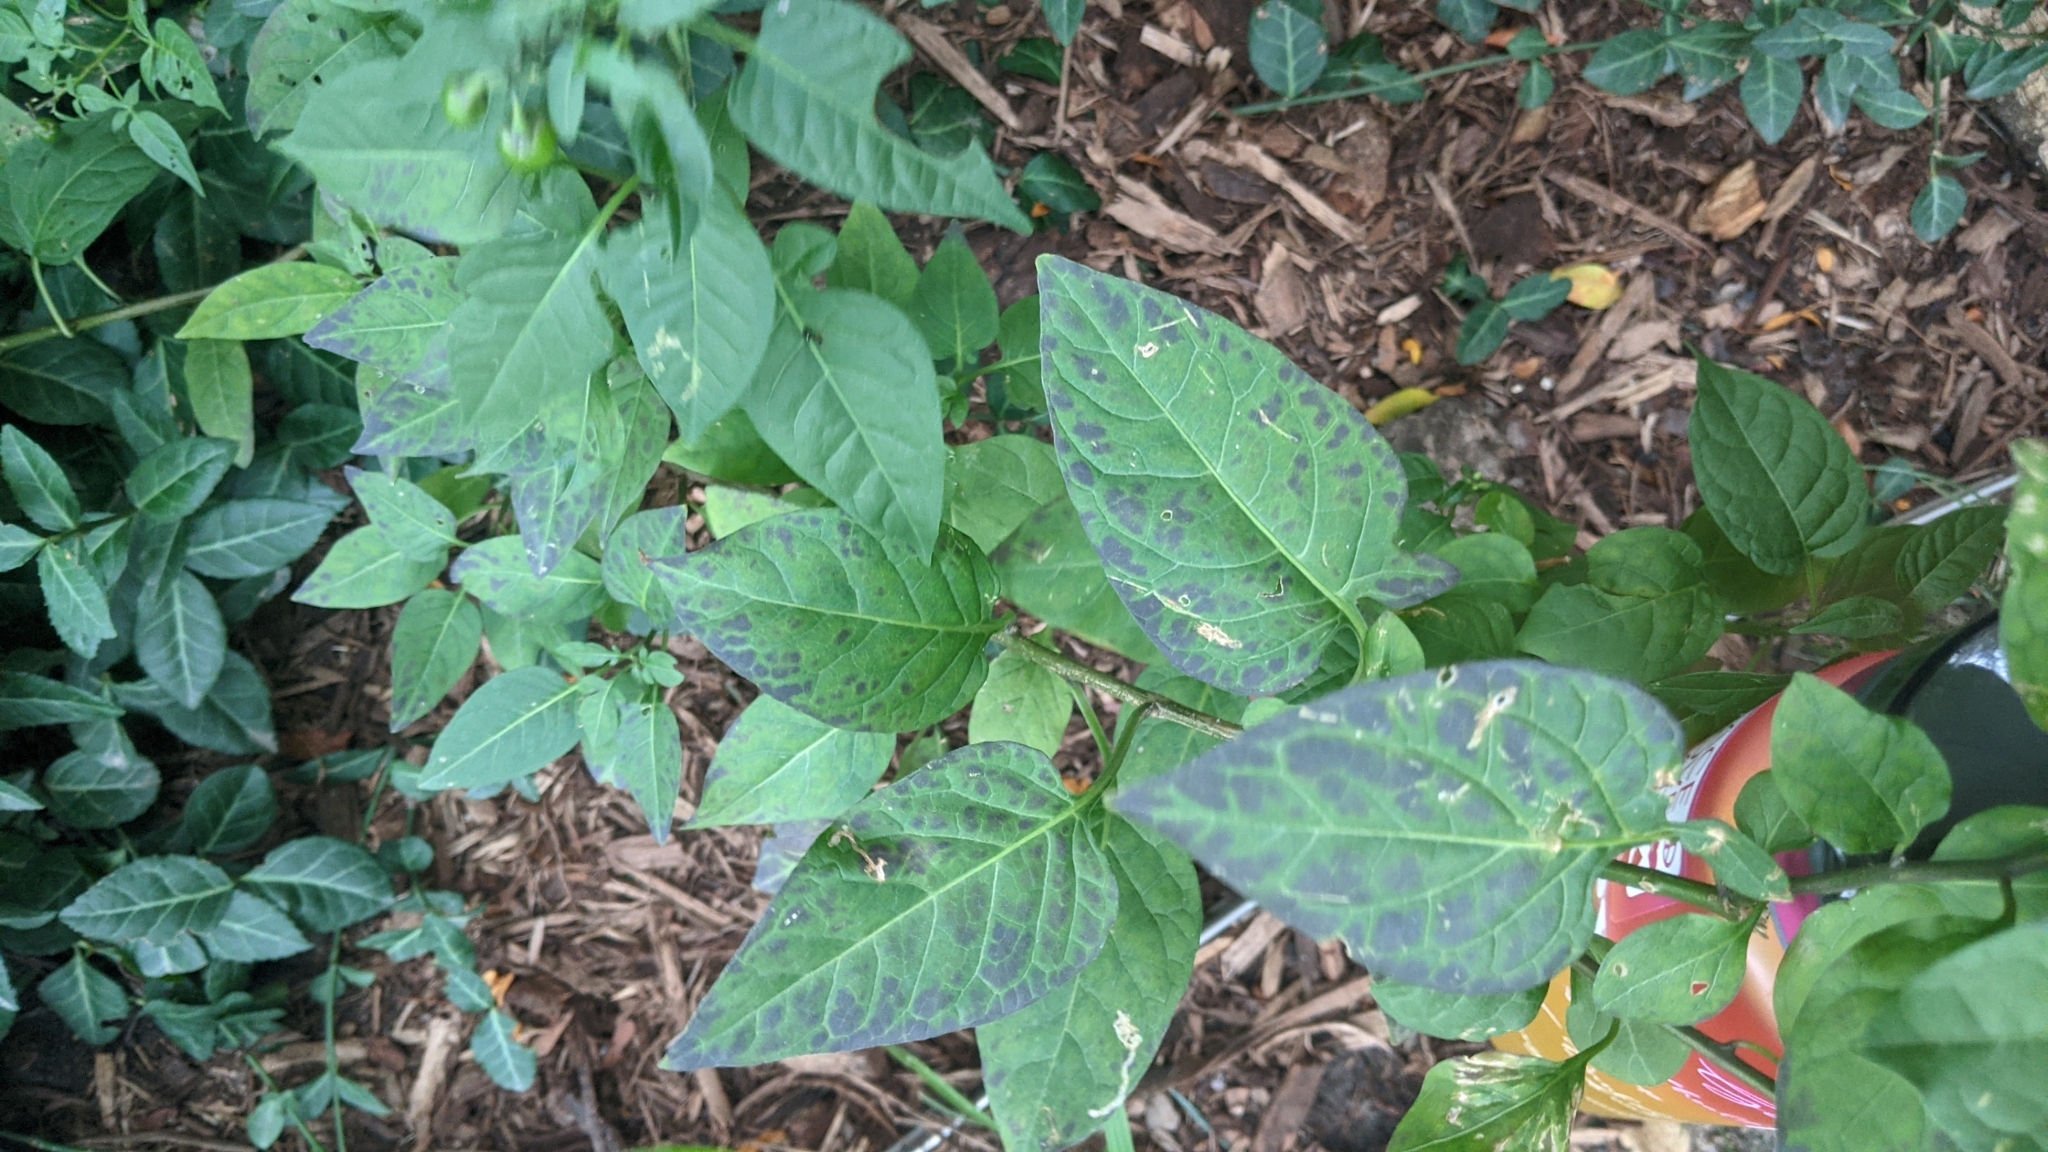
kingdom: Plantae
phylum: Tracheophyta
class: Magnoliopsida
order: Solanales
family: Solanaceae
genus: Solanum
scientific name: Solanum dulcamara
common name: Climbing nightshade
